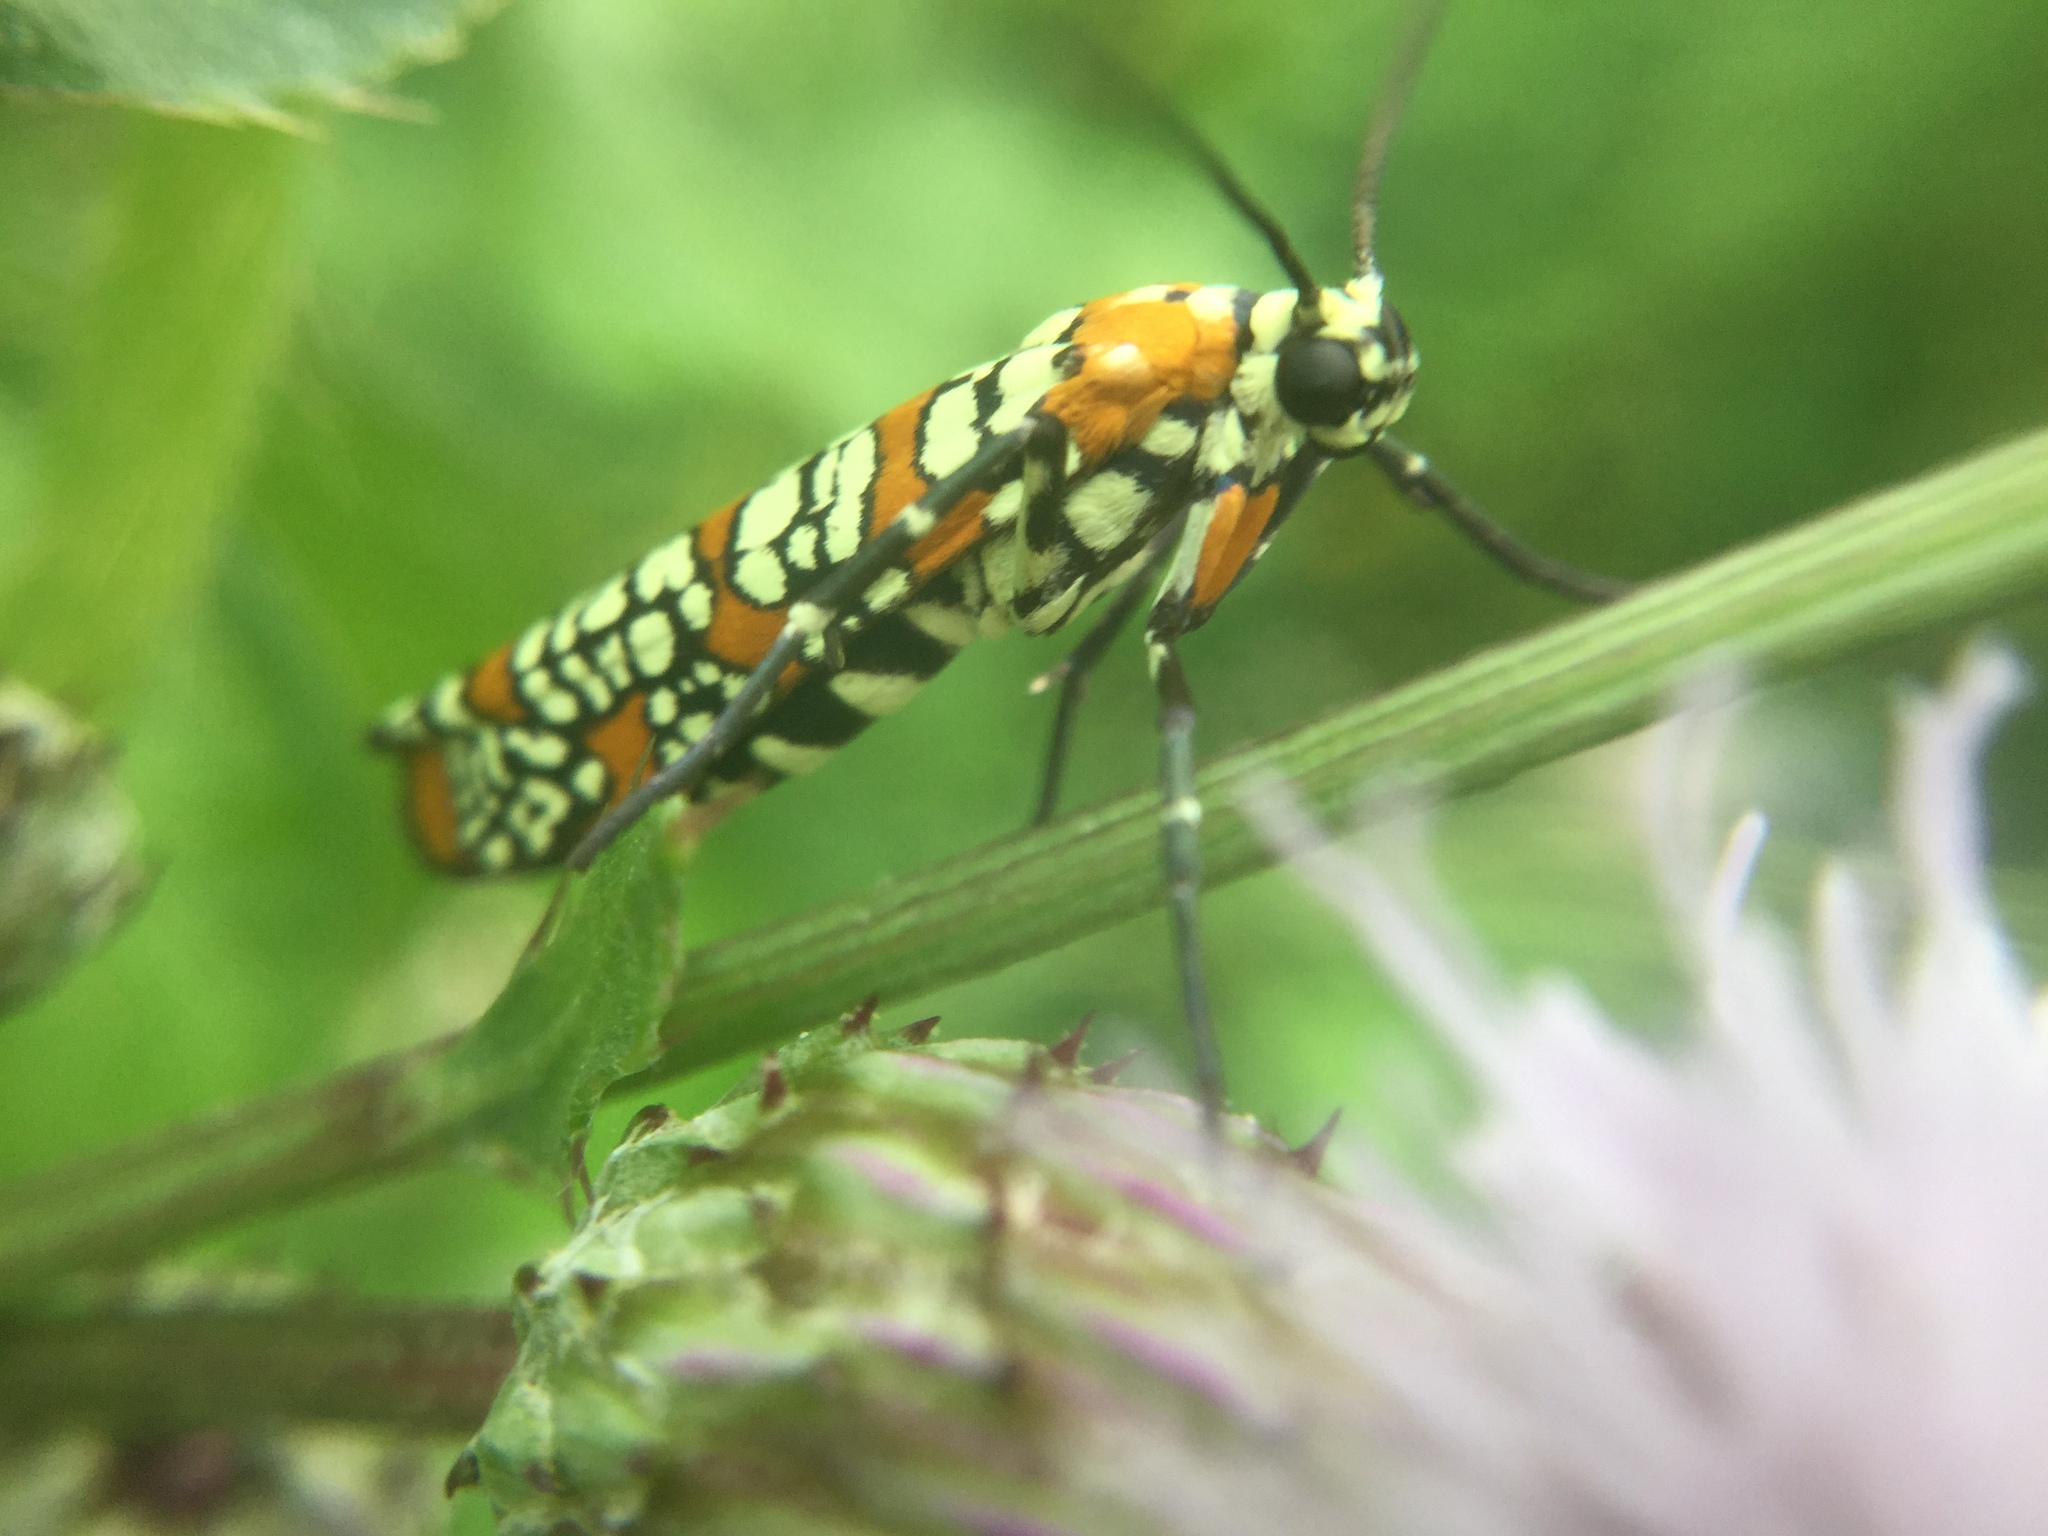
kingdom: Animalia
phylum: Arthropoda
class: Insecta
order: Lepidoptera
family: Attevidae
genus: Atteva
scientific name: Atteva punctella
